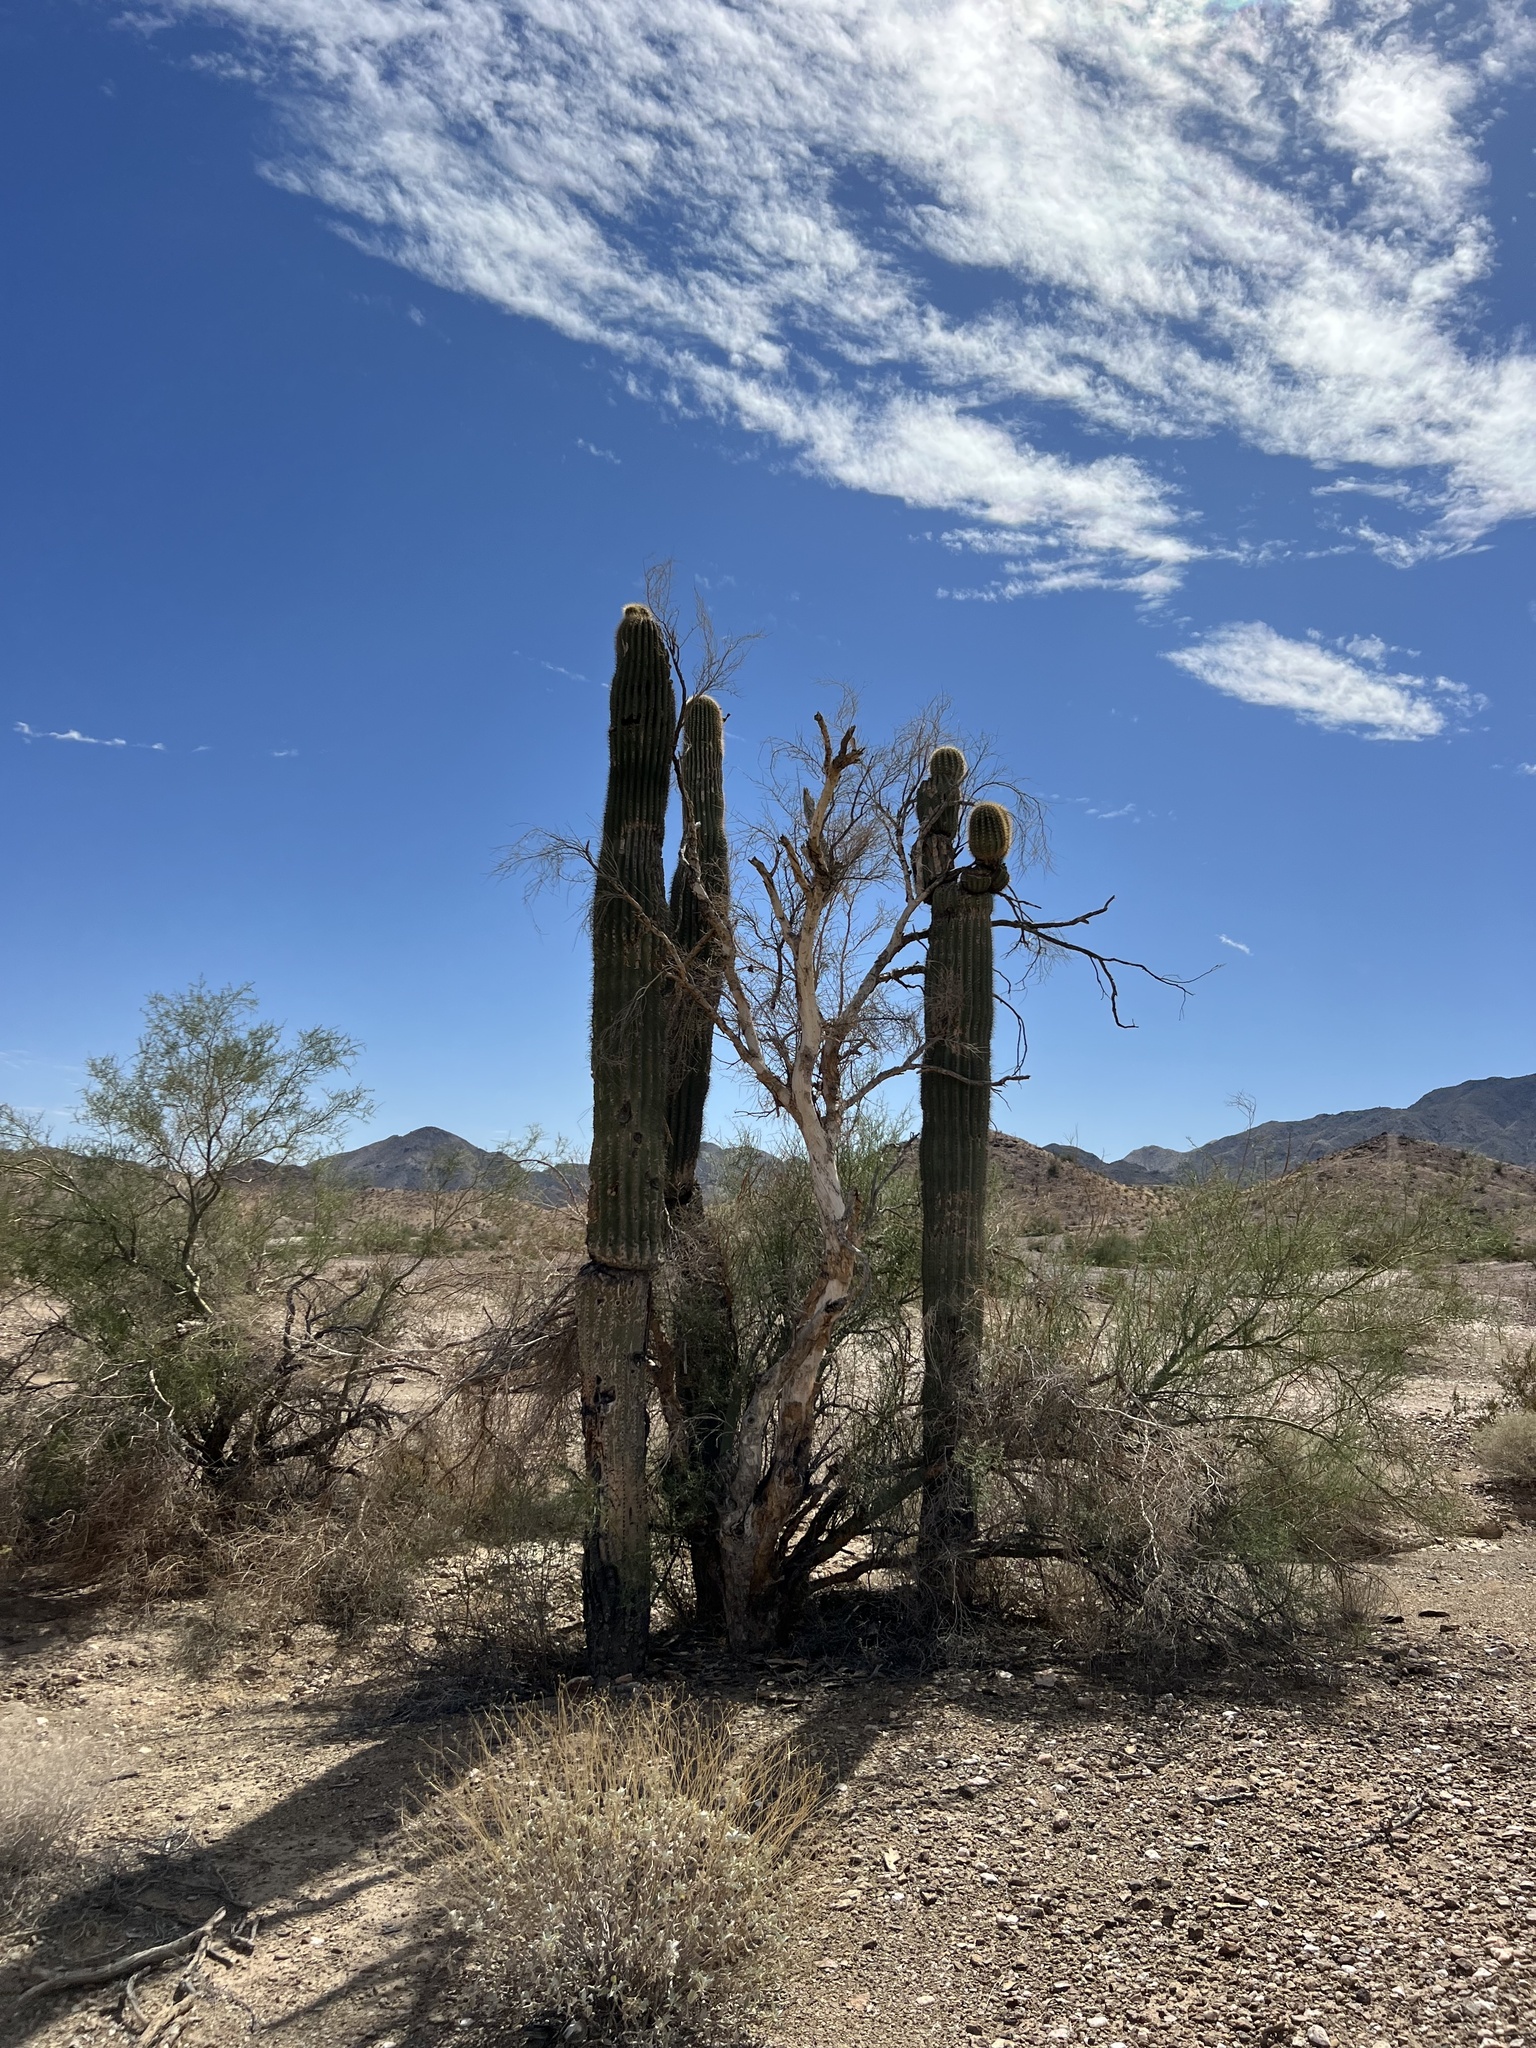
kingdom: Plantae
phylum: Tracheophyta
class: Magnoliopsida
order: Caryophyllales
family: Cactaceae
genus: Carnegiea
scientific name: Carnegiea gigantea
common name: Saguaro
